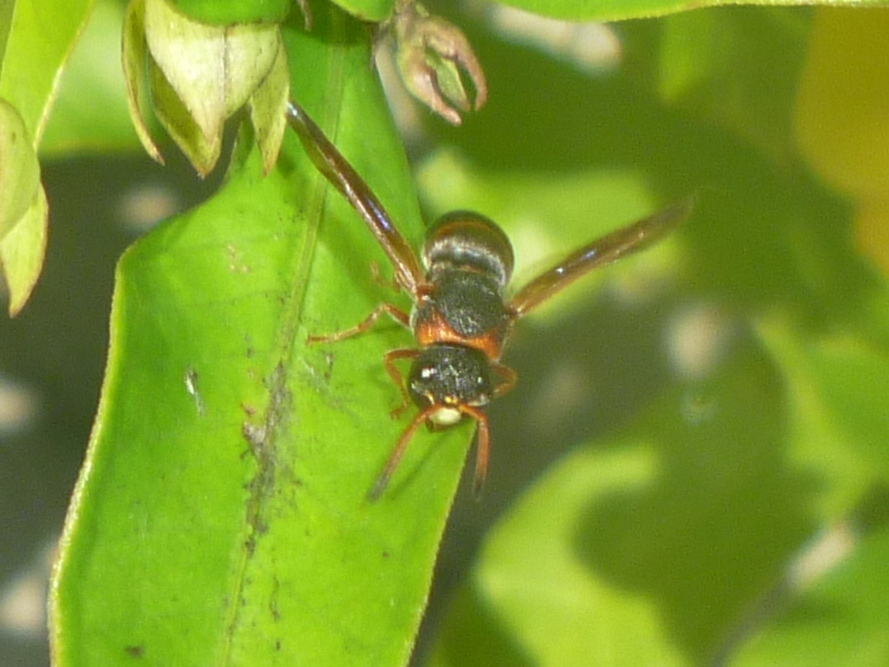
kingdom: Animalia
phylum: Arthropoda
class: Insecta
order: Hymenoptera
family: Eumenidae
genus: Pachodynerus
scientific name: Pachodynerus erynnis
